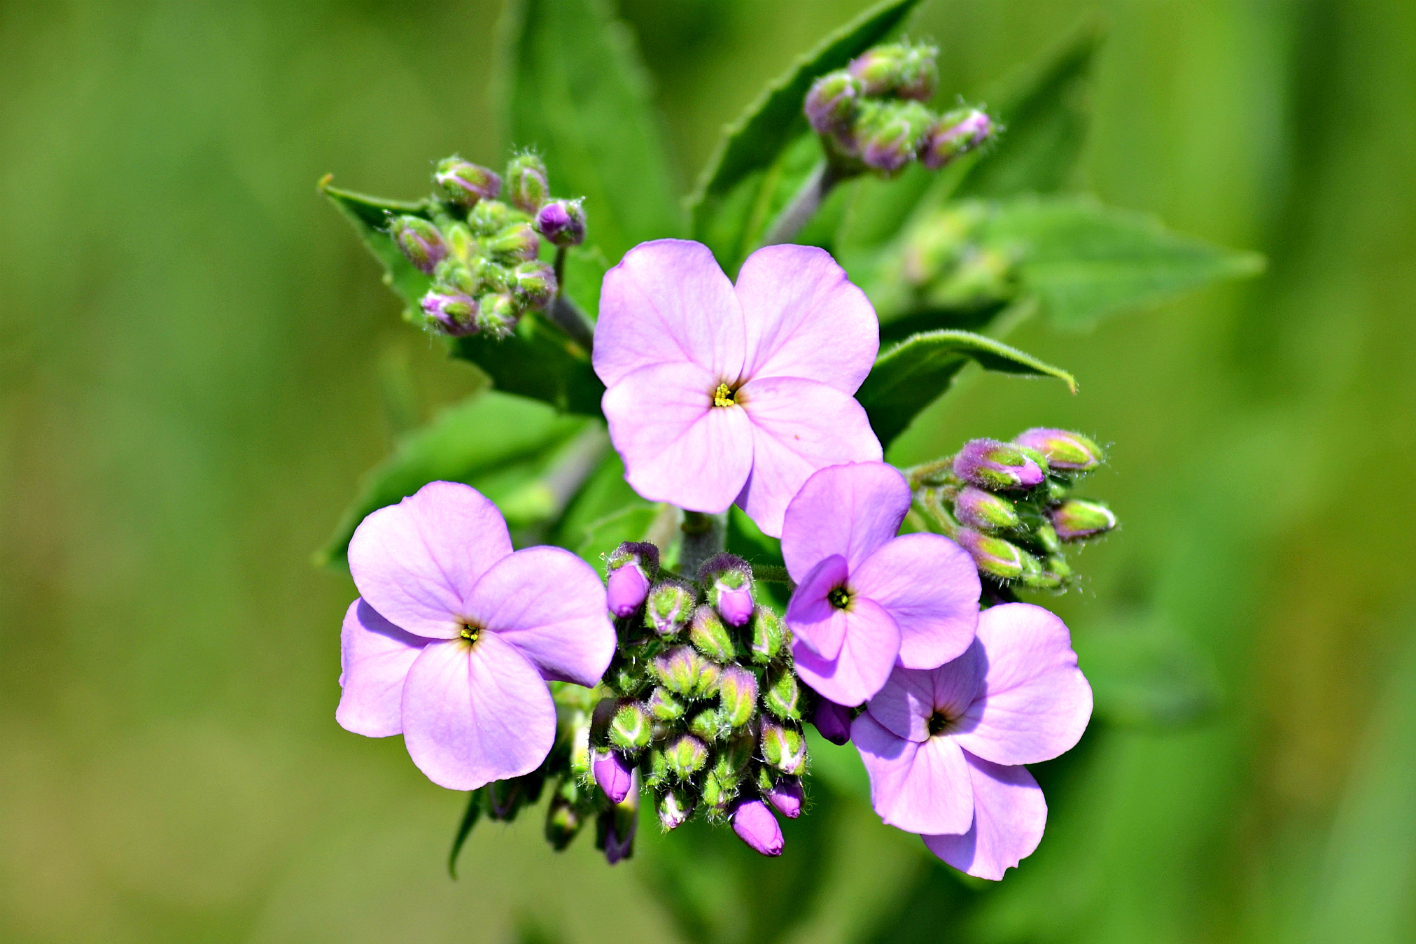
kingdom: Plantae
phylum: Tracheophyta
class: Magnoliopsida
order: Brassicales
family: Brassicaceae
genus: Hesperis
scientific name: Hesperis matronalis
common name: Dame's-violet
